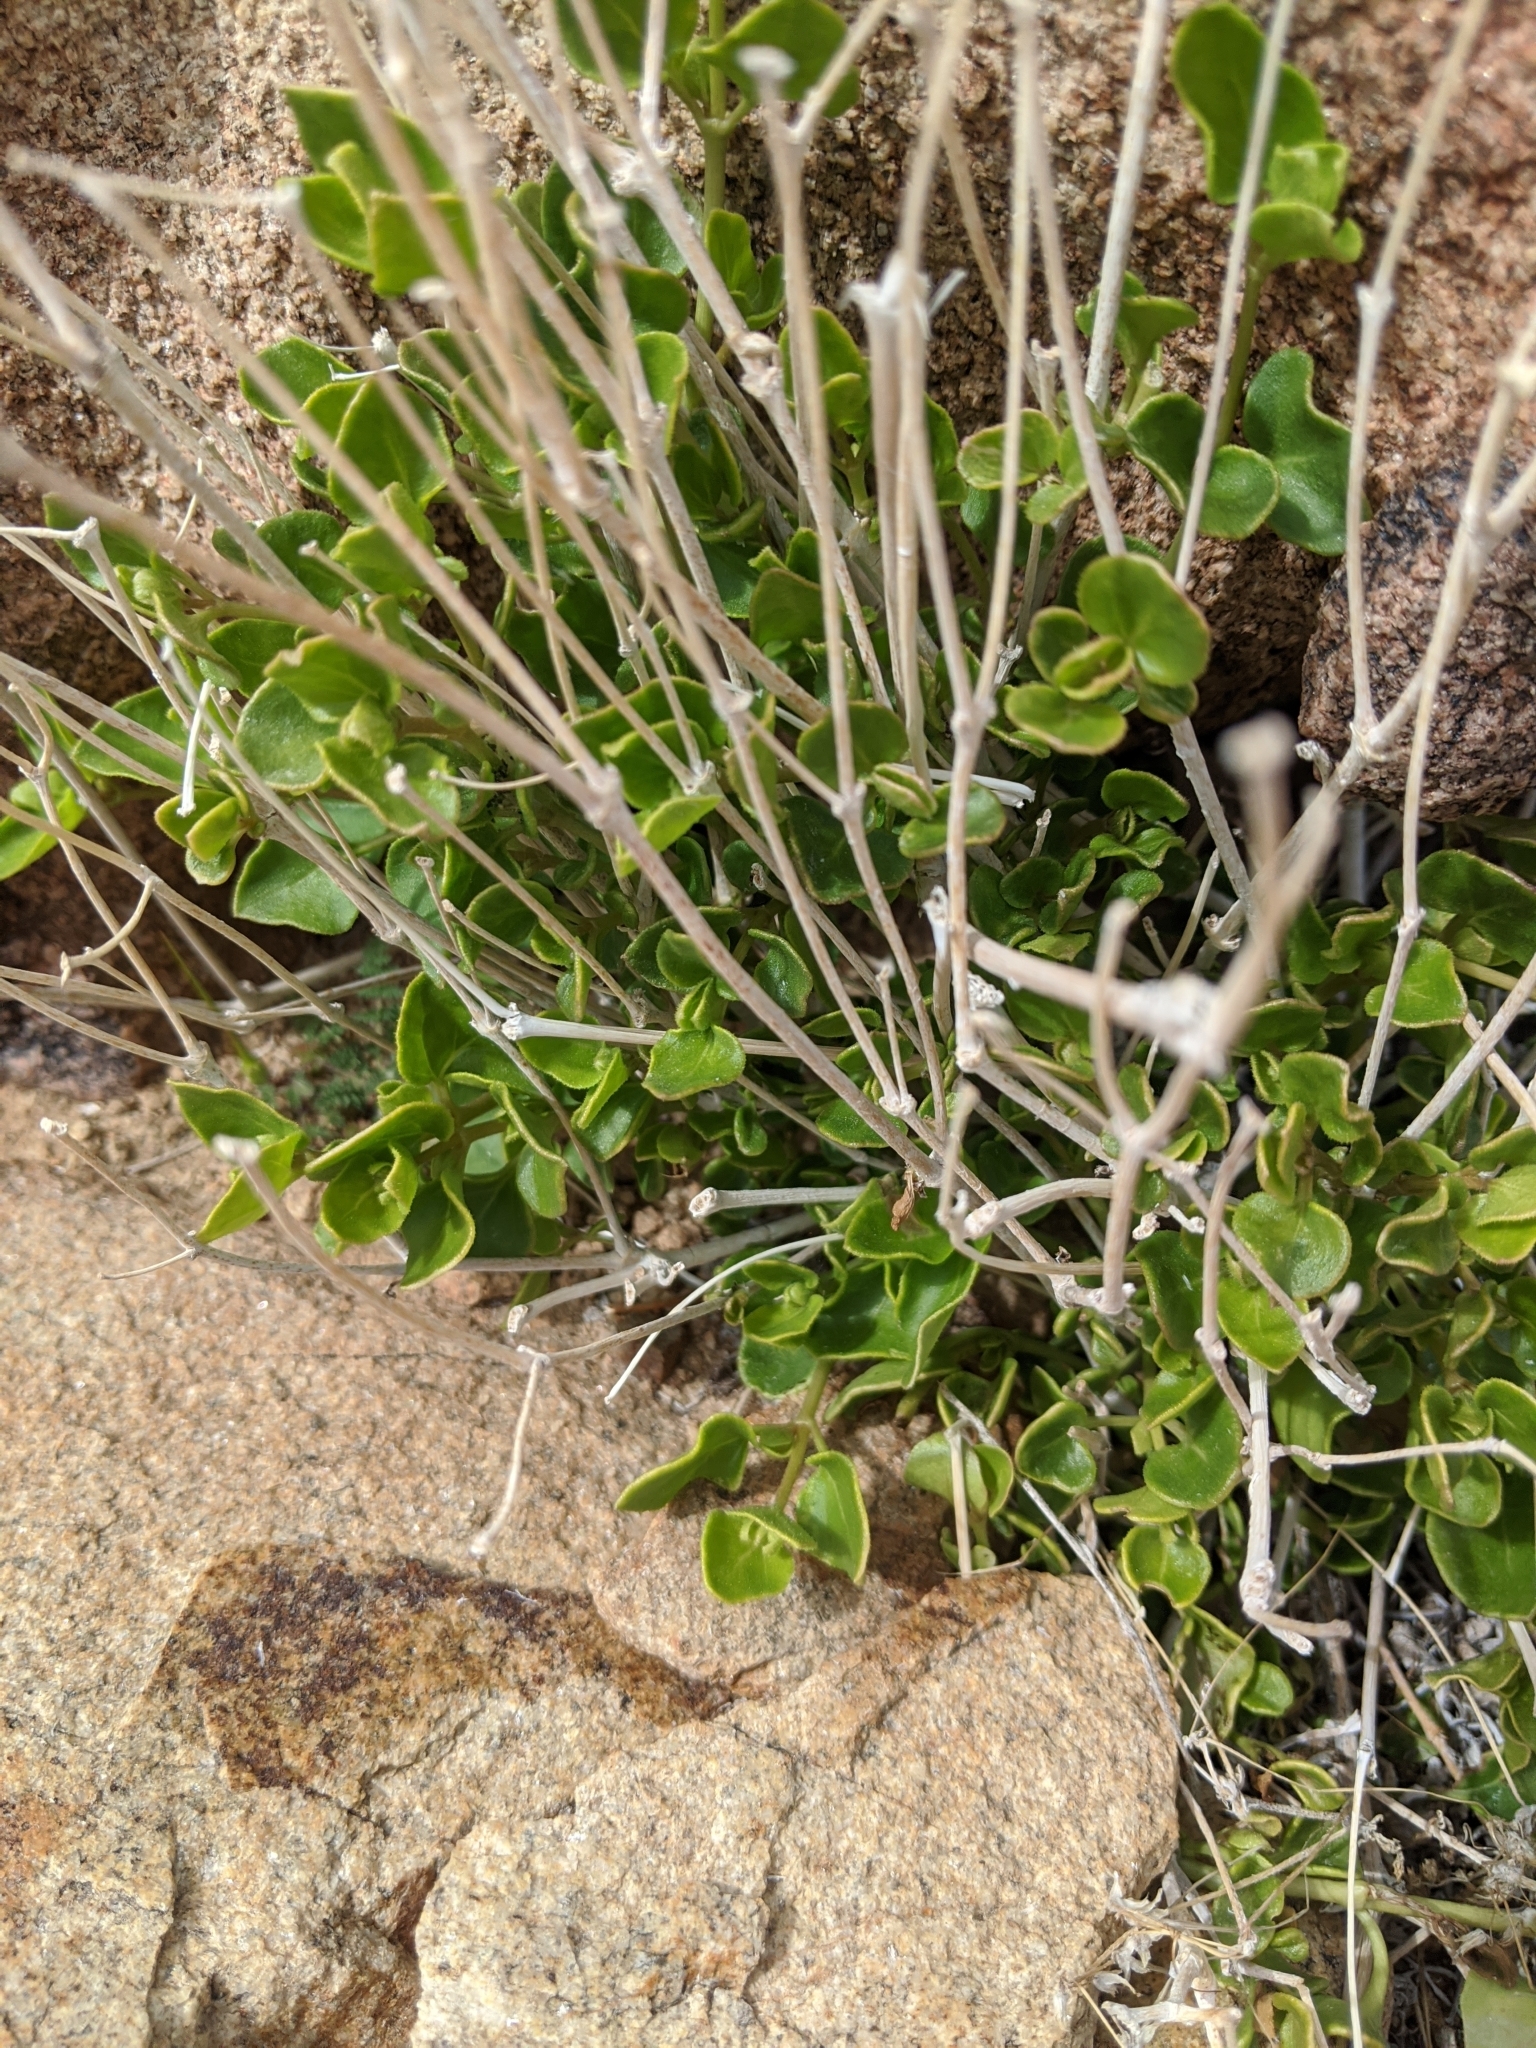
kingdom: Plantae
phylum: Tracheophyta
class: Magnoliopsida
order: Caryophyllales
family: Nyctaginaceae
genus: Mirabilis
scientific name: Mirabilis laevis
